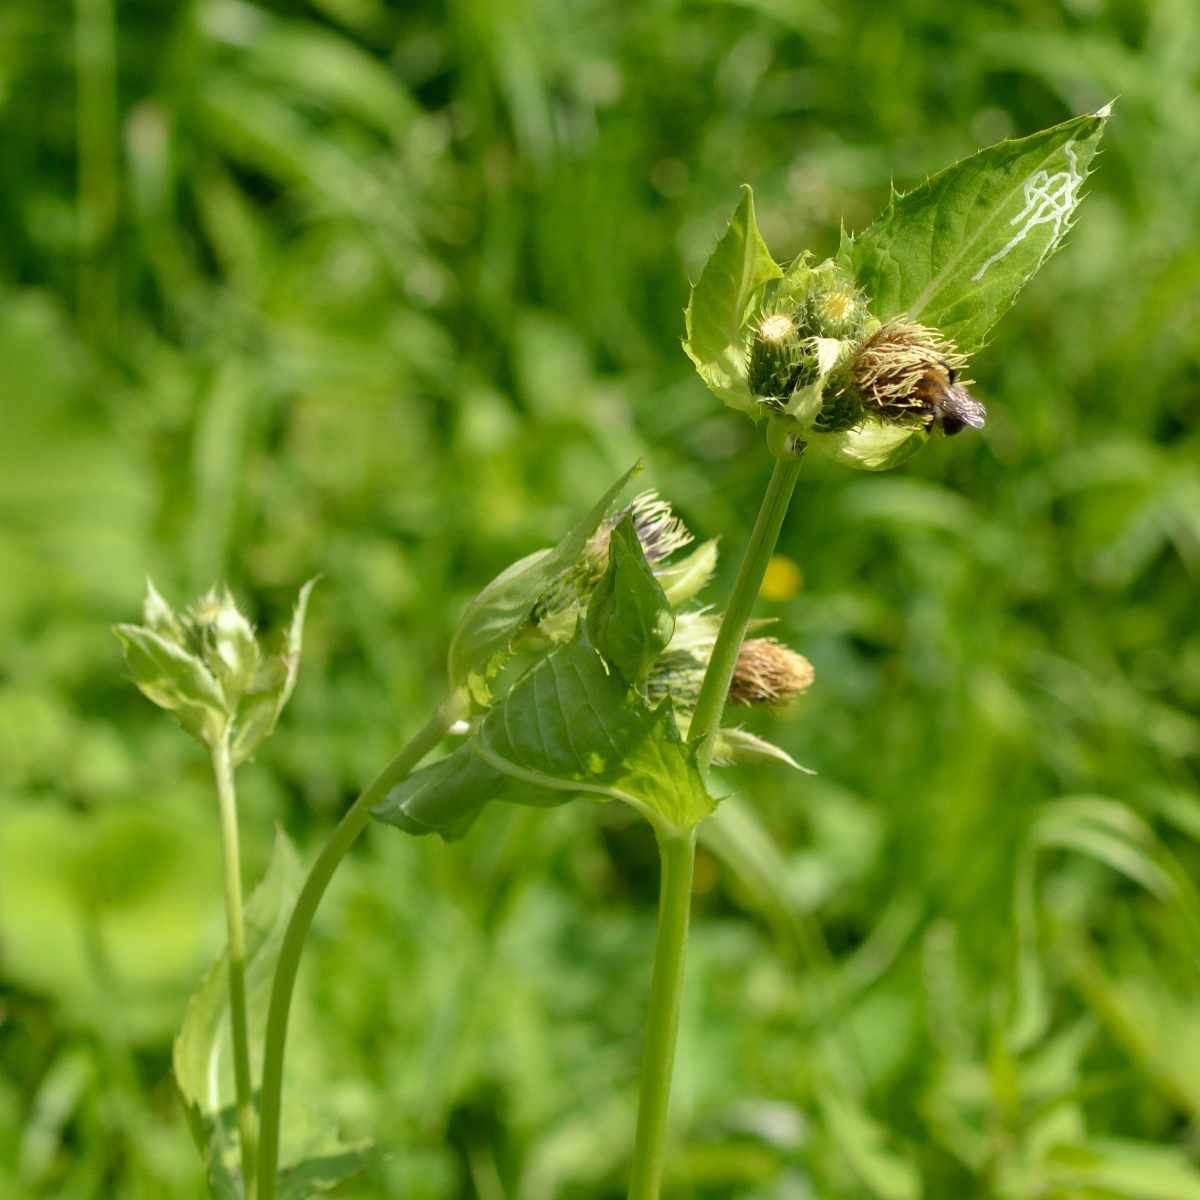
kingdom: Plantae
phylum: Tracheophyta
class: Magnoliopsida
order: Asterales
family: Asteraceae
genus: Cirsium
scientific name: Cirsium oleraceum
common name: Cabbage thistle
